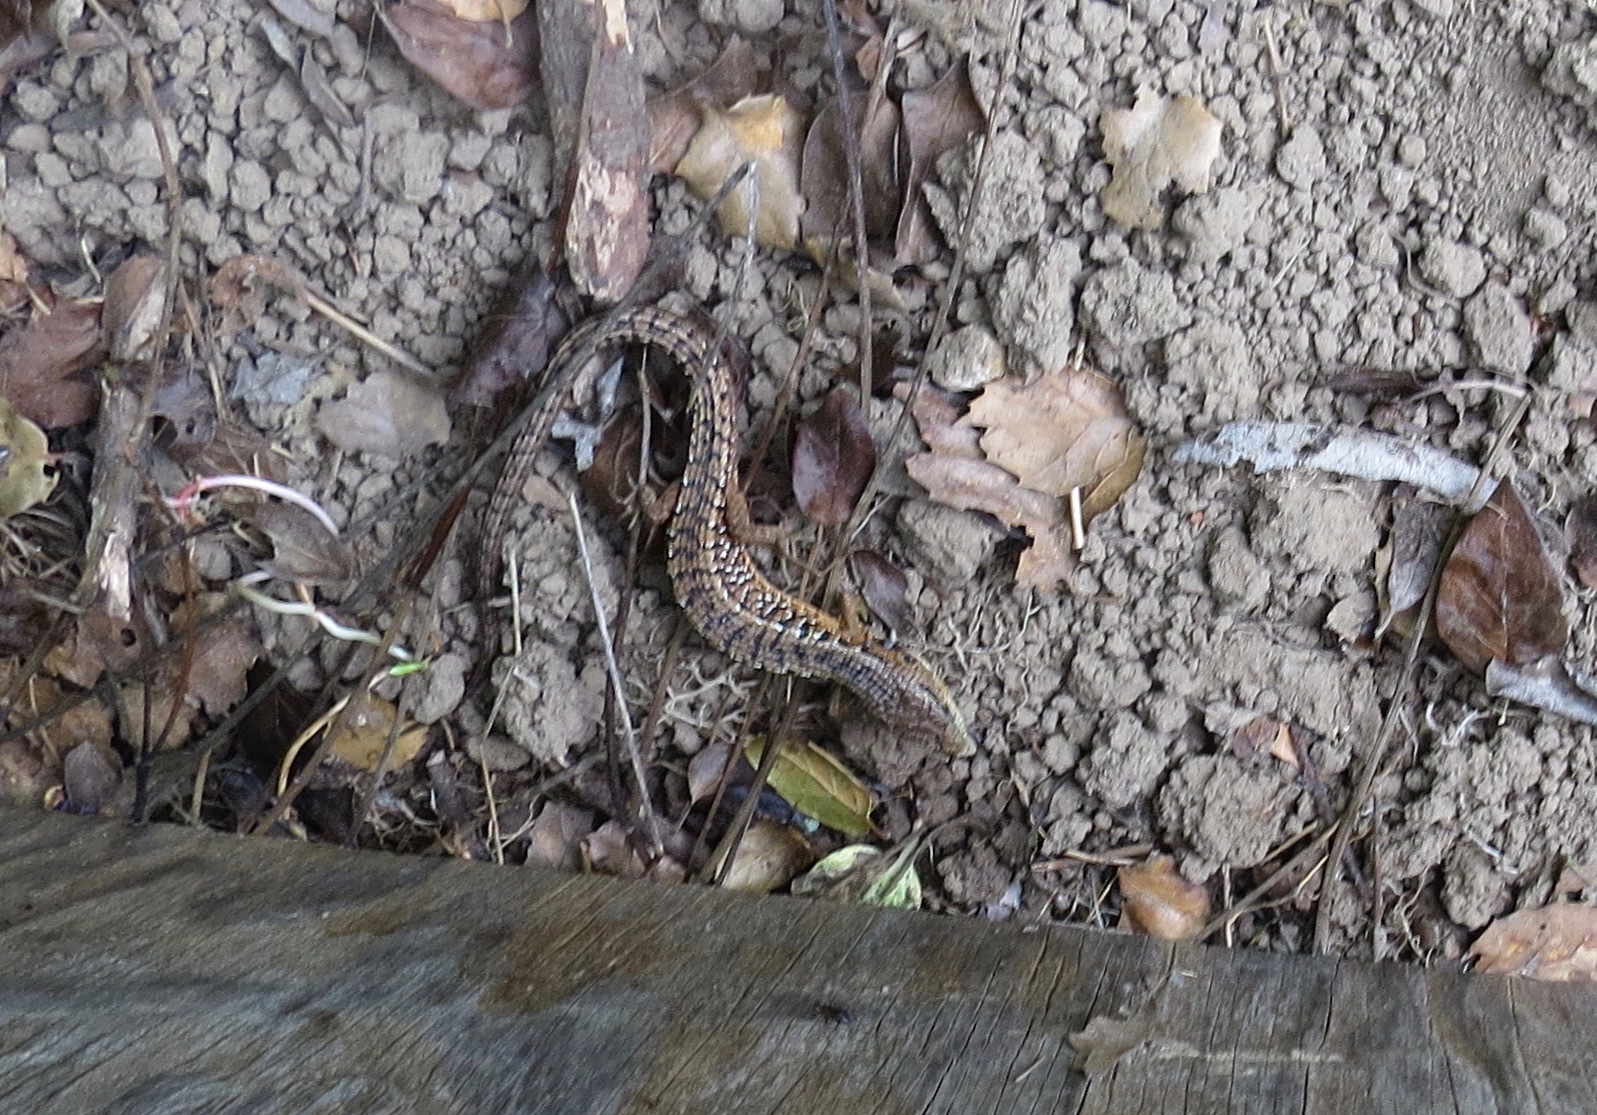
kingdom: Animalia
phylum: Chordata
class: Squamata
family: Anguidae
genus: Elgaria
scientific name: Elgaria coerulea
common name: Northern alligator lizard
